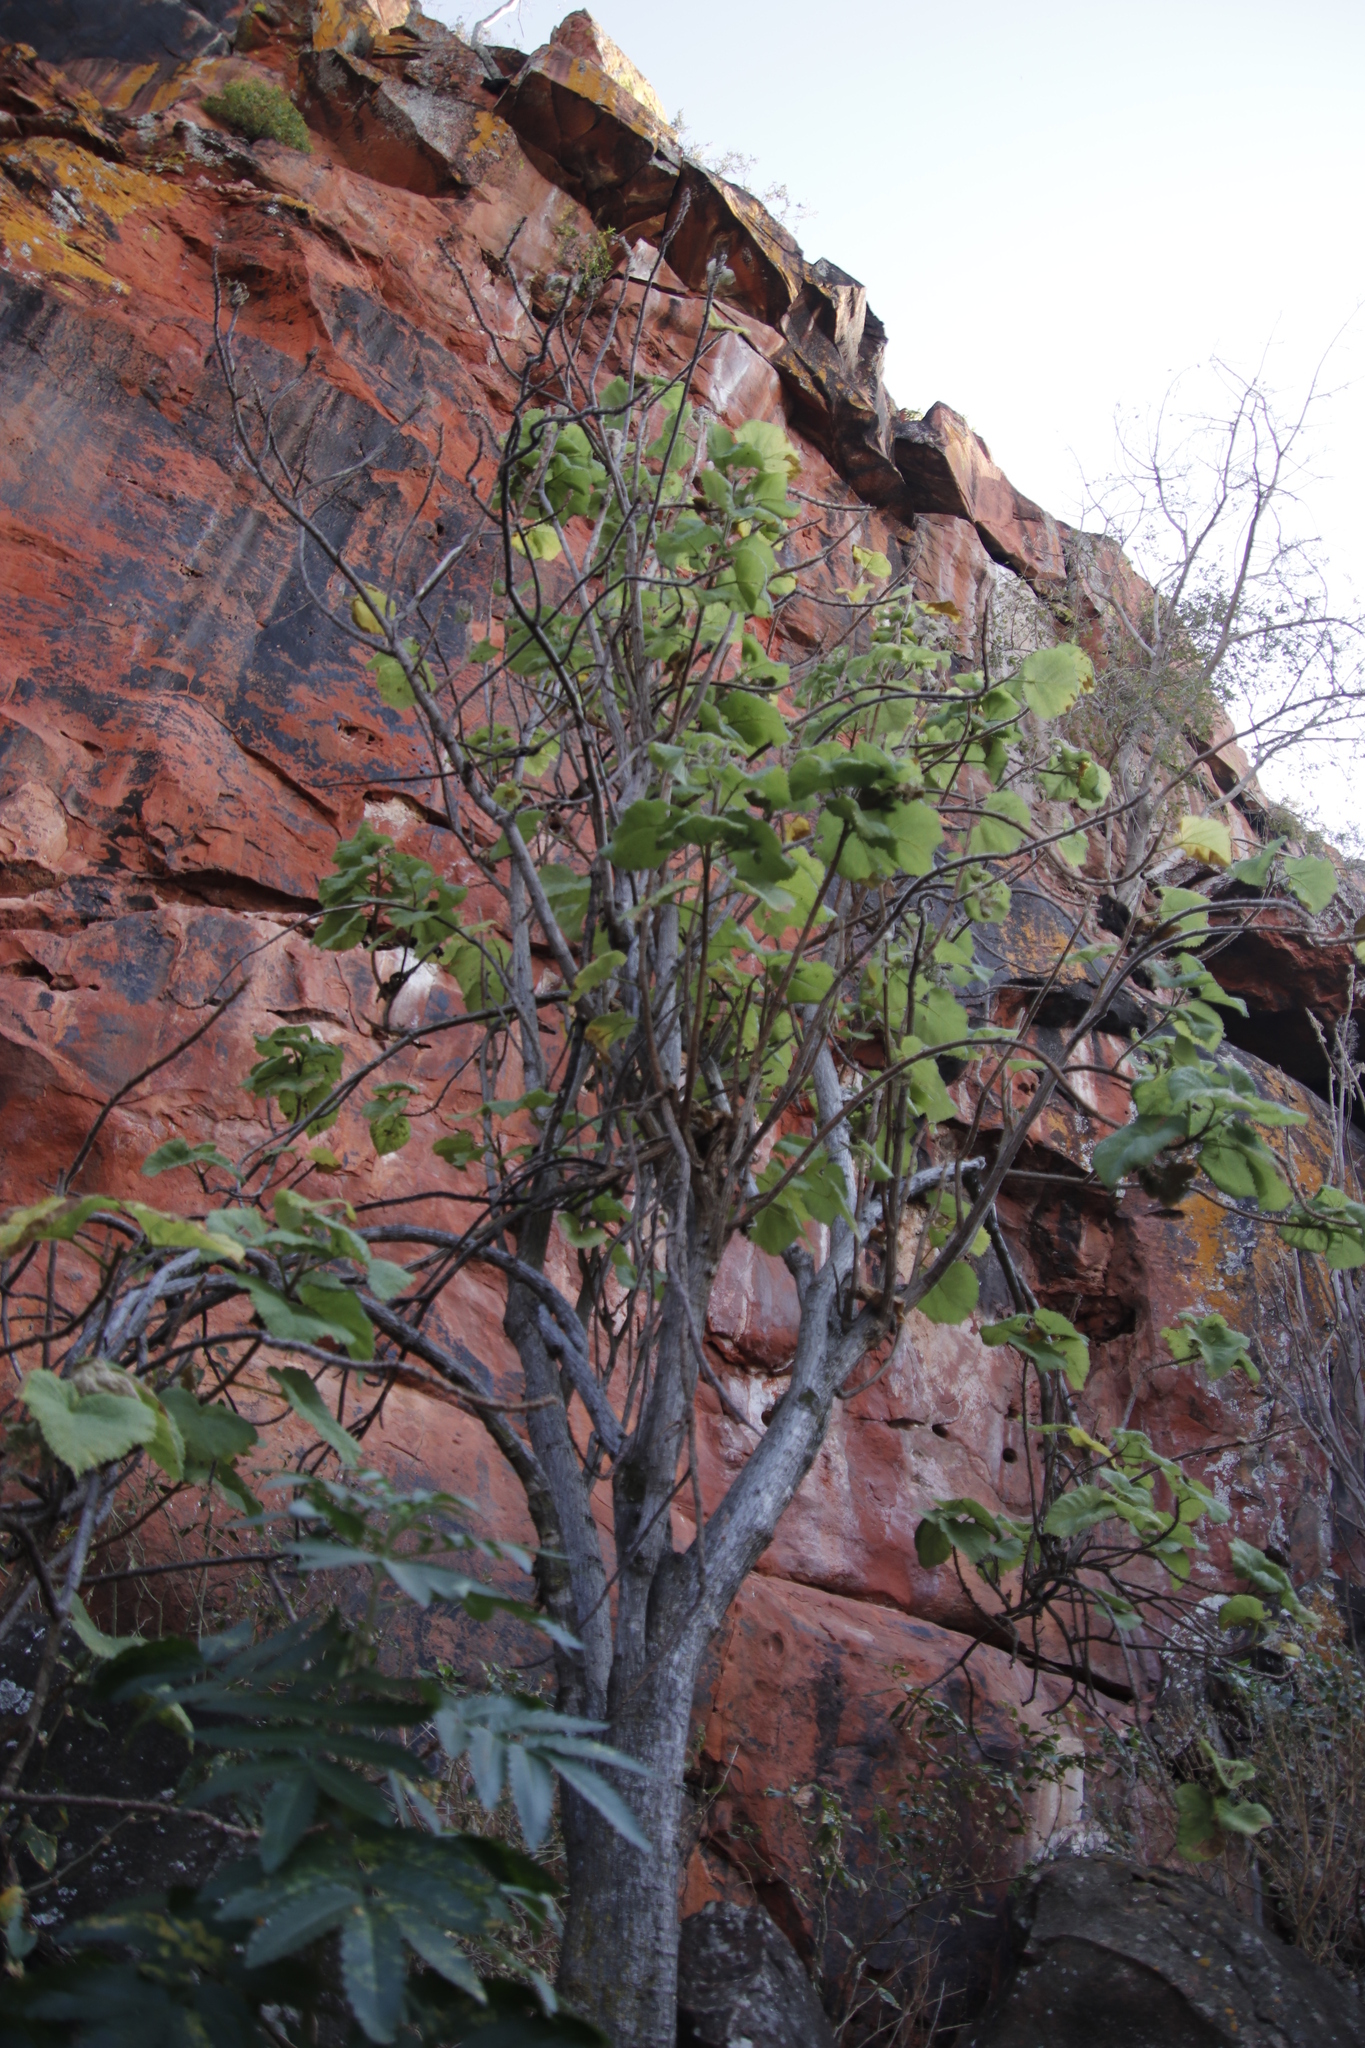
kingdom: Plantae
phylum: Tracheophyta
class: Magnoliopsida
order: Rosales
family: Urticaceae
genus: Obetia
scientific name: Obetia tenax
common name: Rock tree nettle
